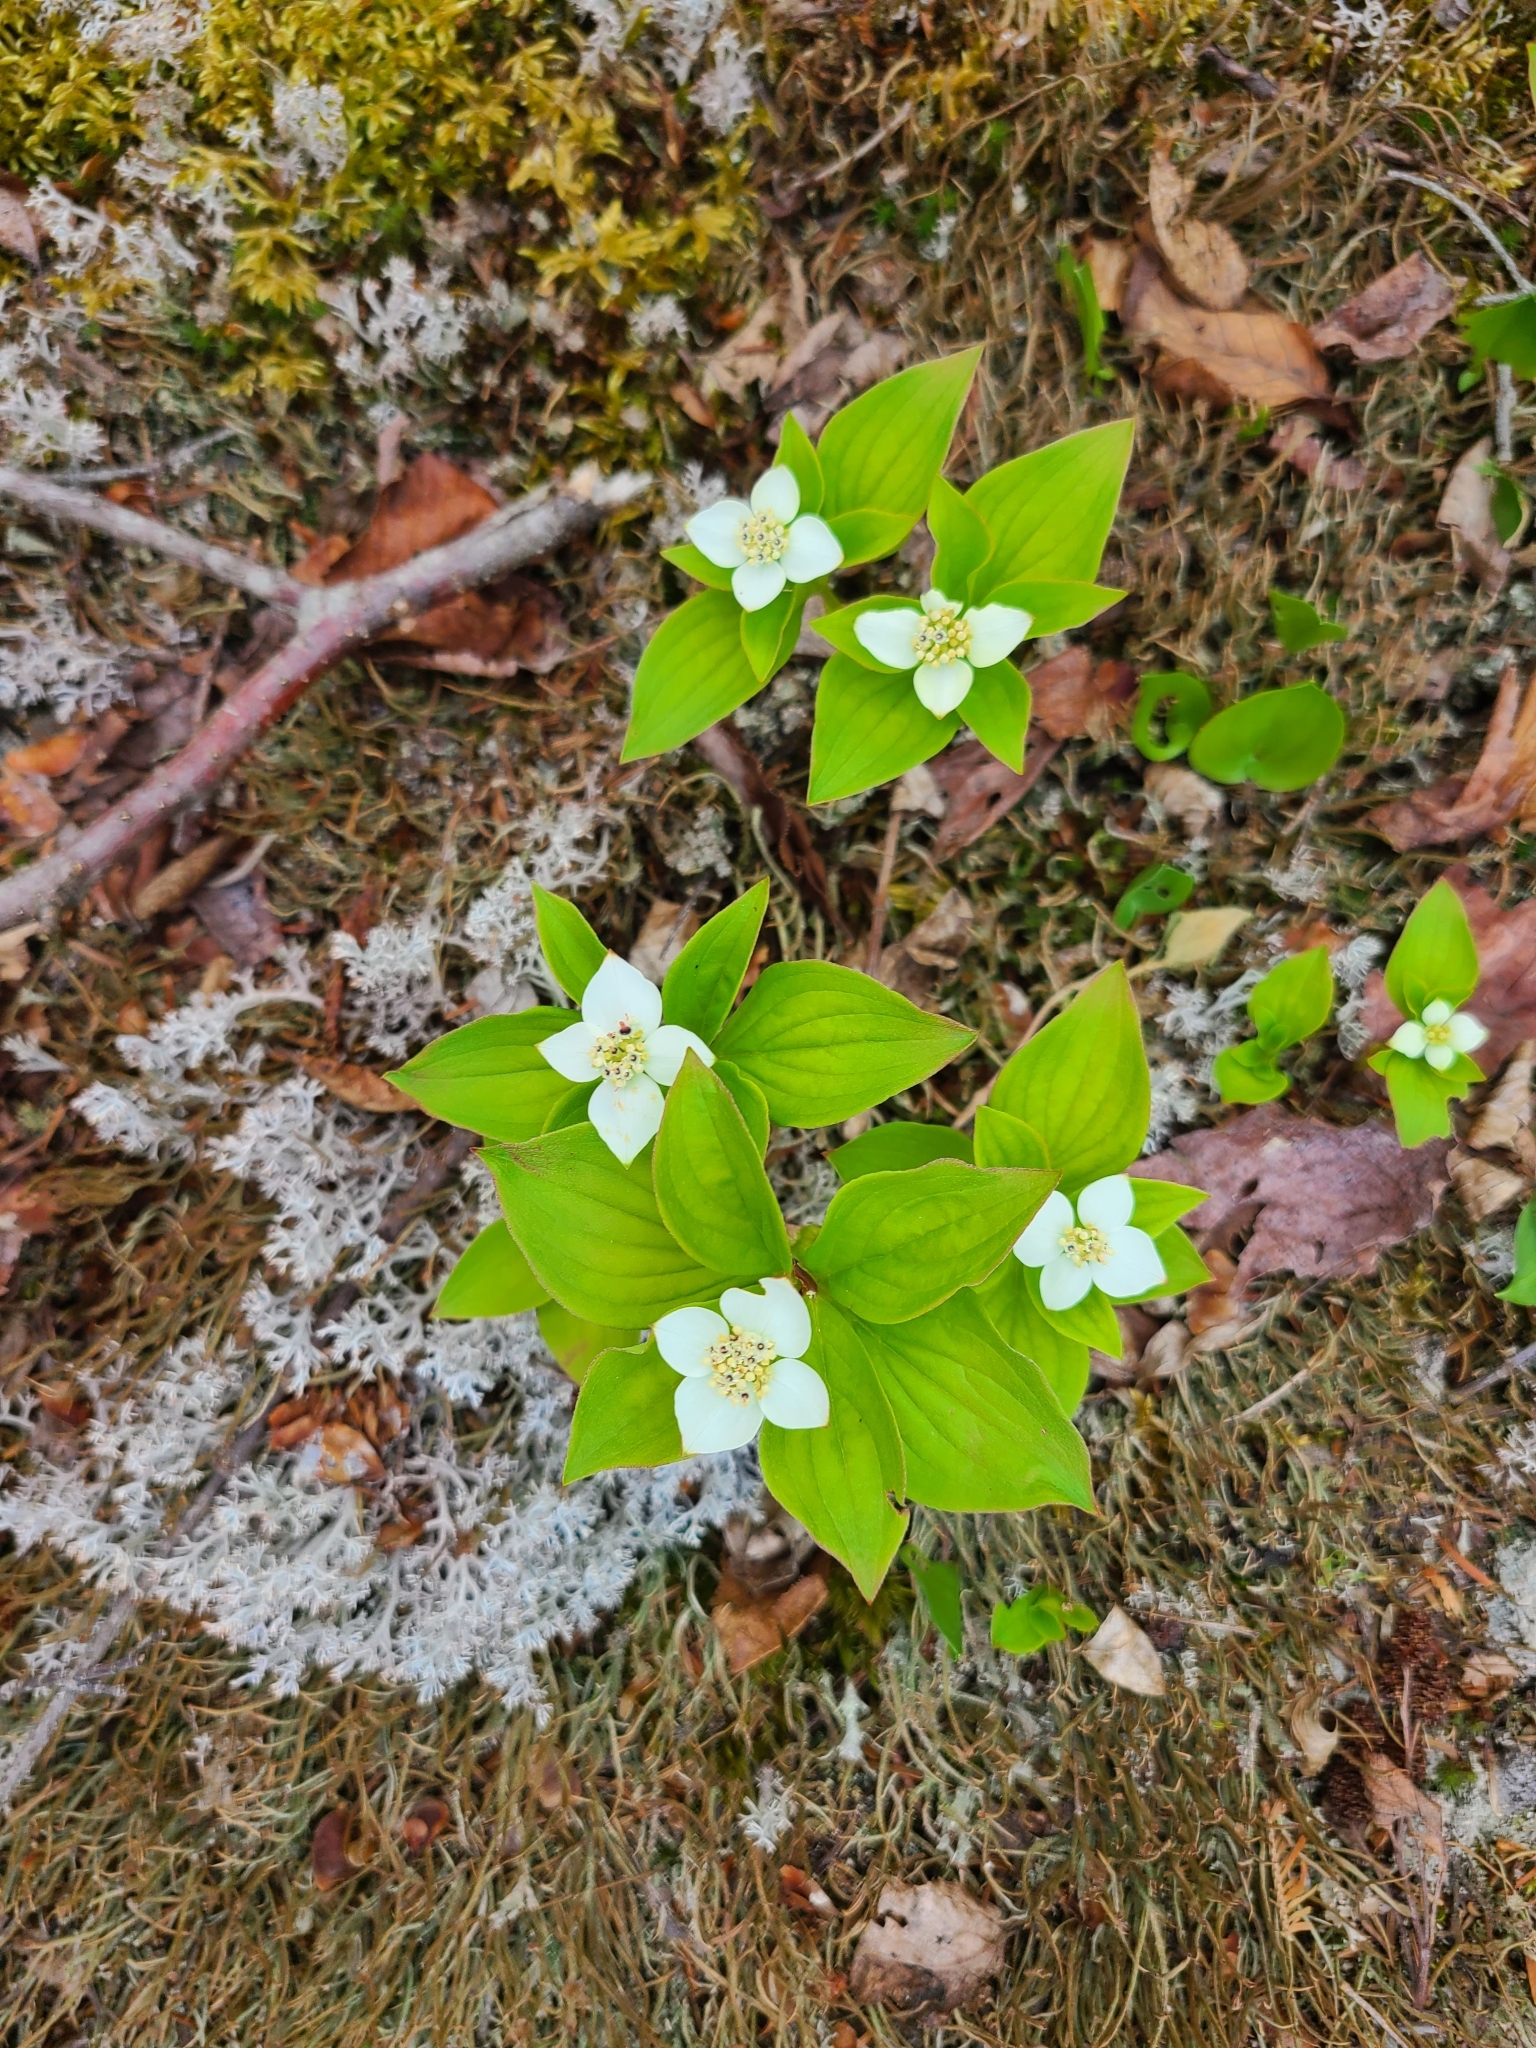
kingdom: Plantae
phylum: Tracheophyta
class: Magnoliopsida
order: Cornales
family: Cornaceae
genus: Cornus
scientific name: Cornus canadensis
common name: Creeping dogwood
